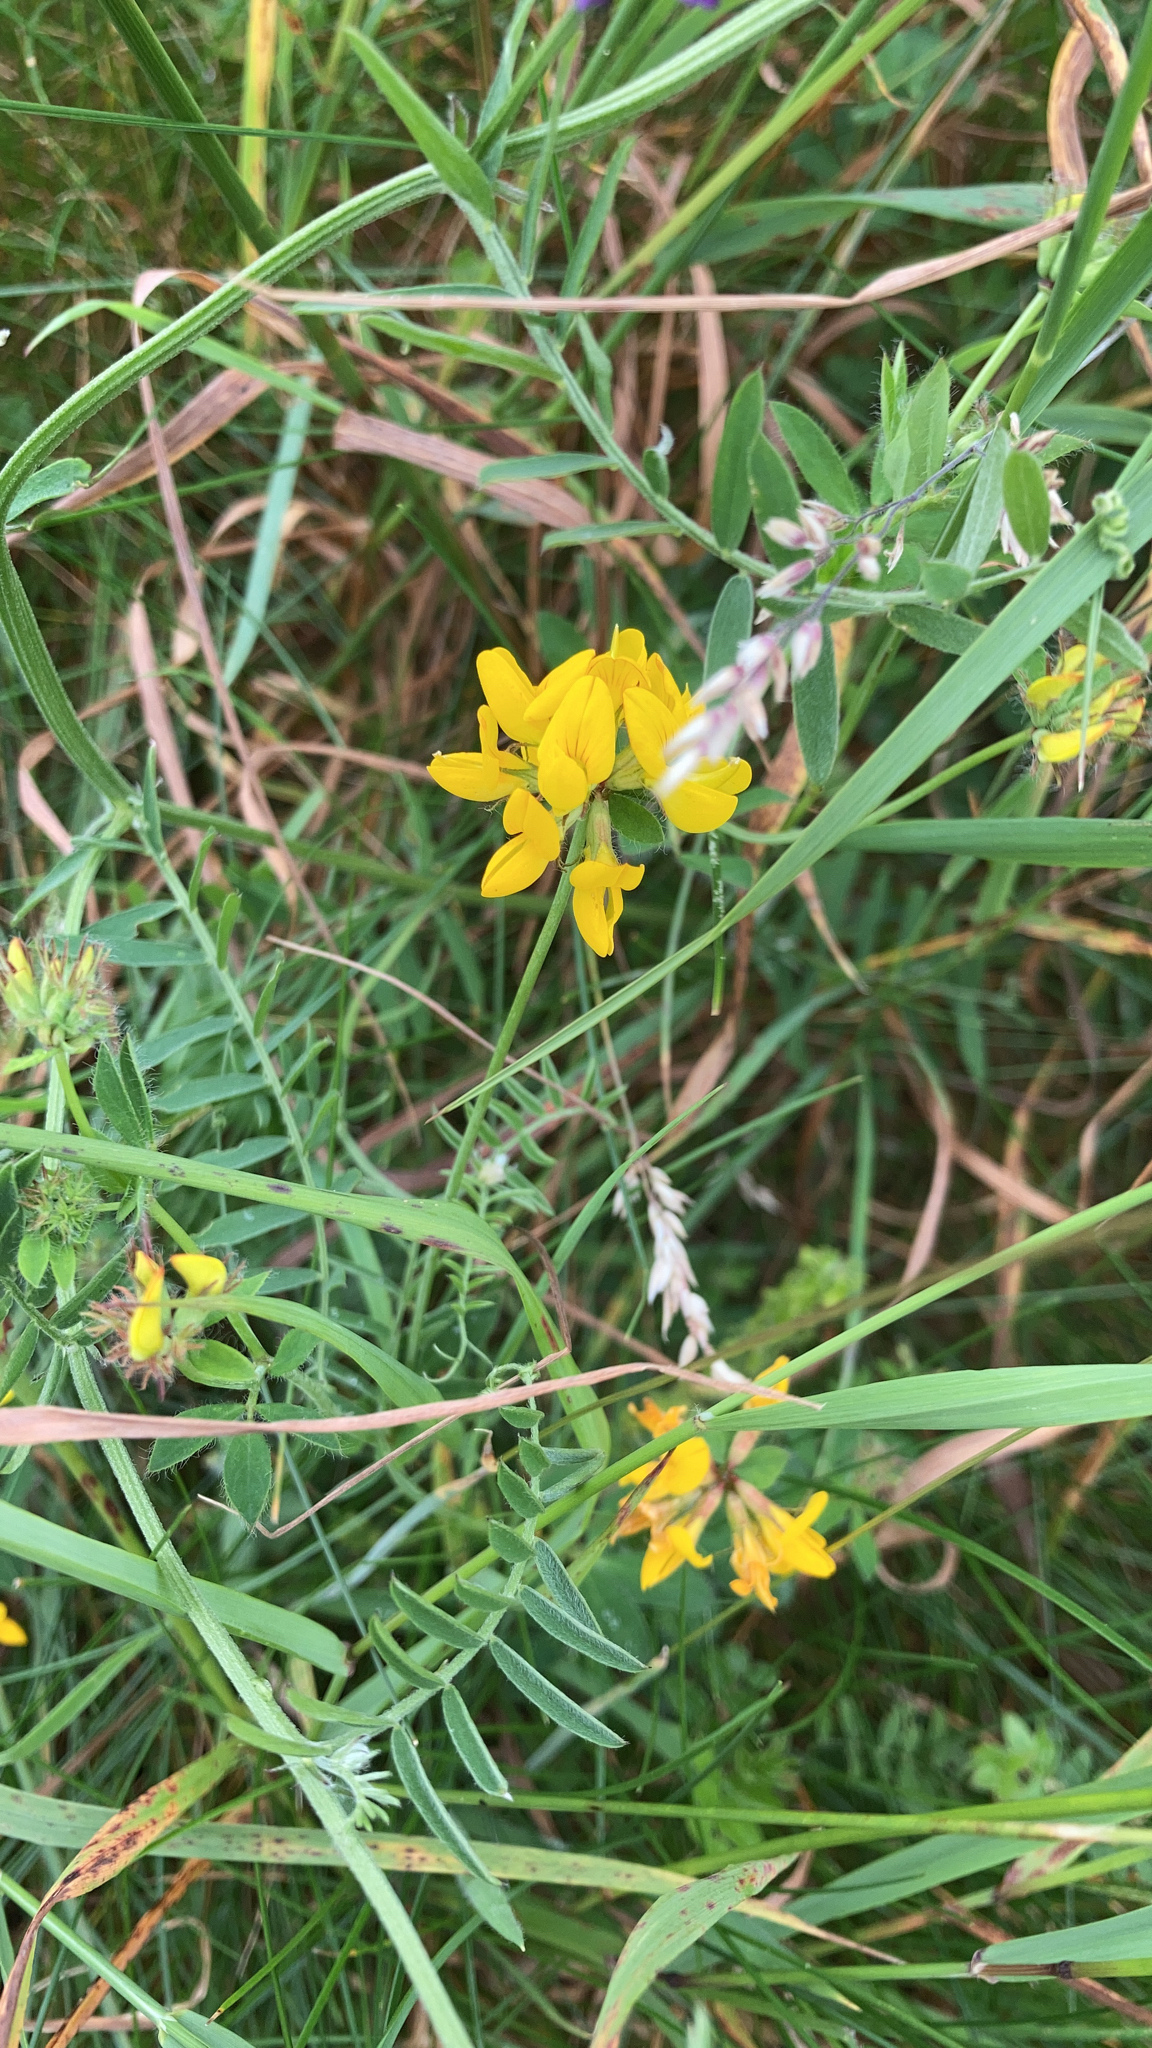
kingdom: Plantae
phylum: Tracheophyta
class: Magnoliopsida
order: Fabales
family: Fabaceae
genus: Lotus
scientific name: Lotus pedunculatus
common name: Greater birdsfoot-trefoil
